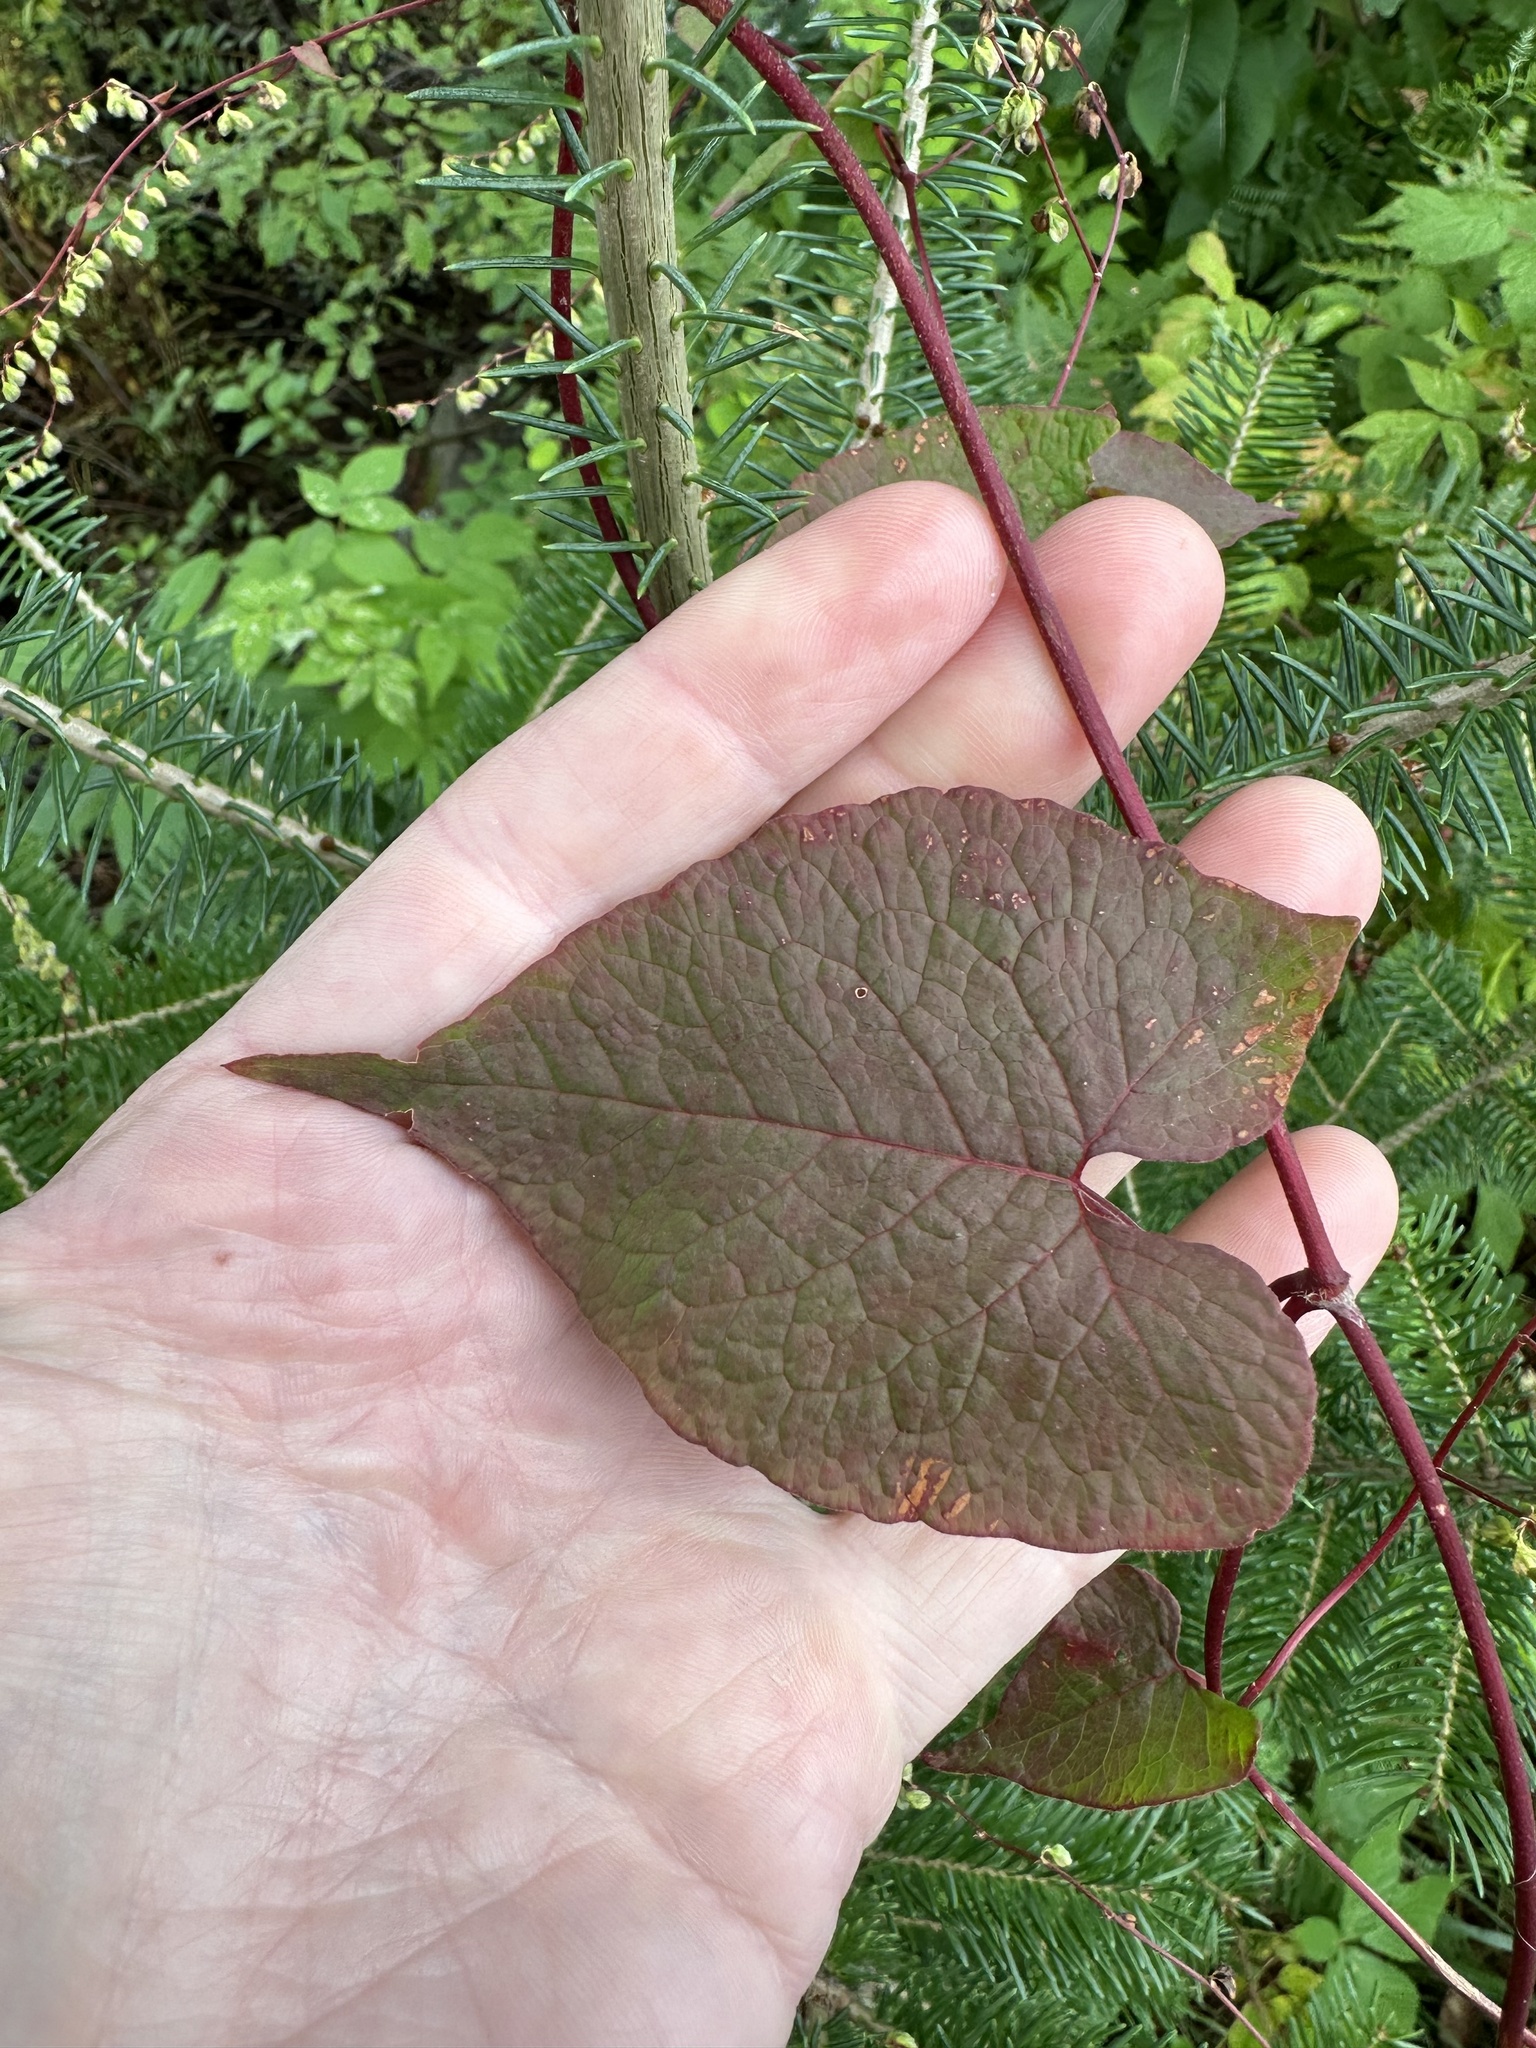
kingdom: Plantae
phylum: Tracheophyta
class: Magnoliopsida
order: Caryophyllales
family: Polygonaceae
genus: Parogonum
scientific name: Parogonum ciliinode
